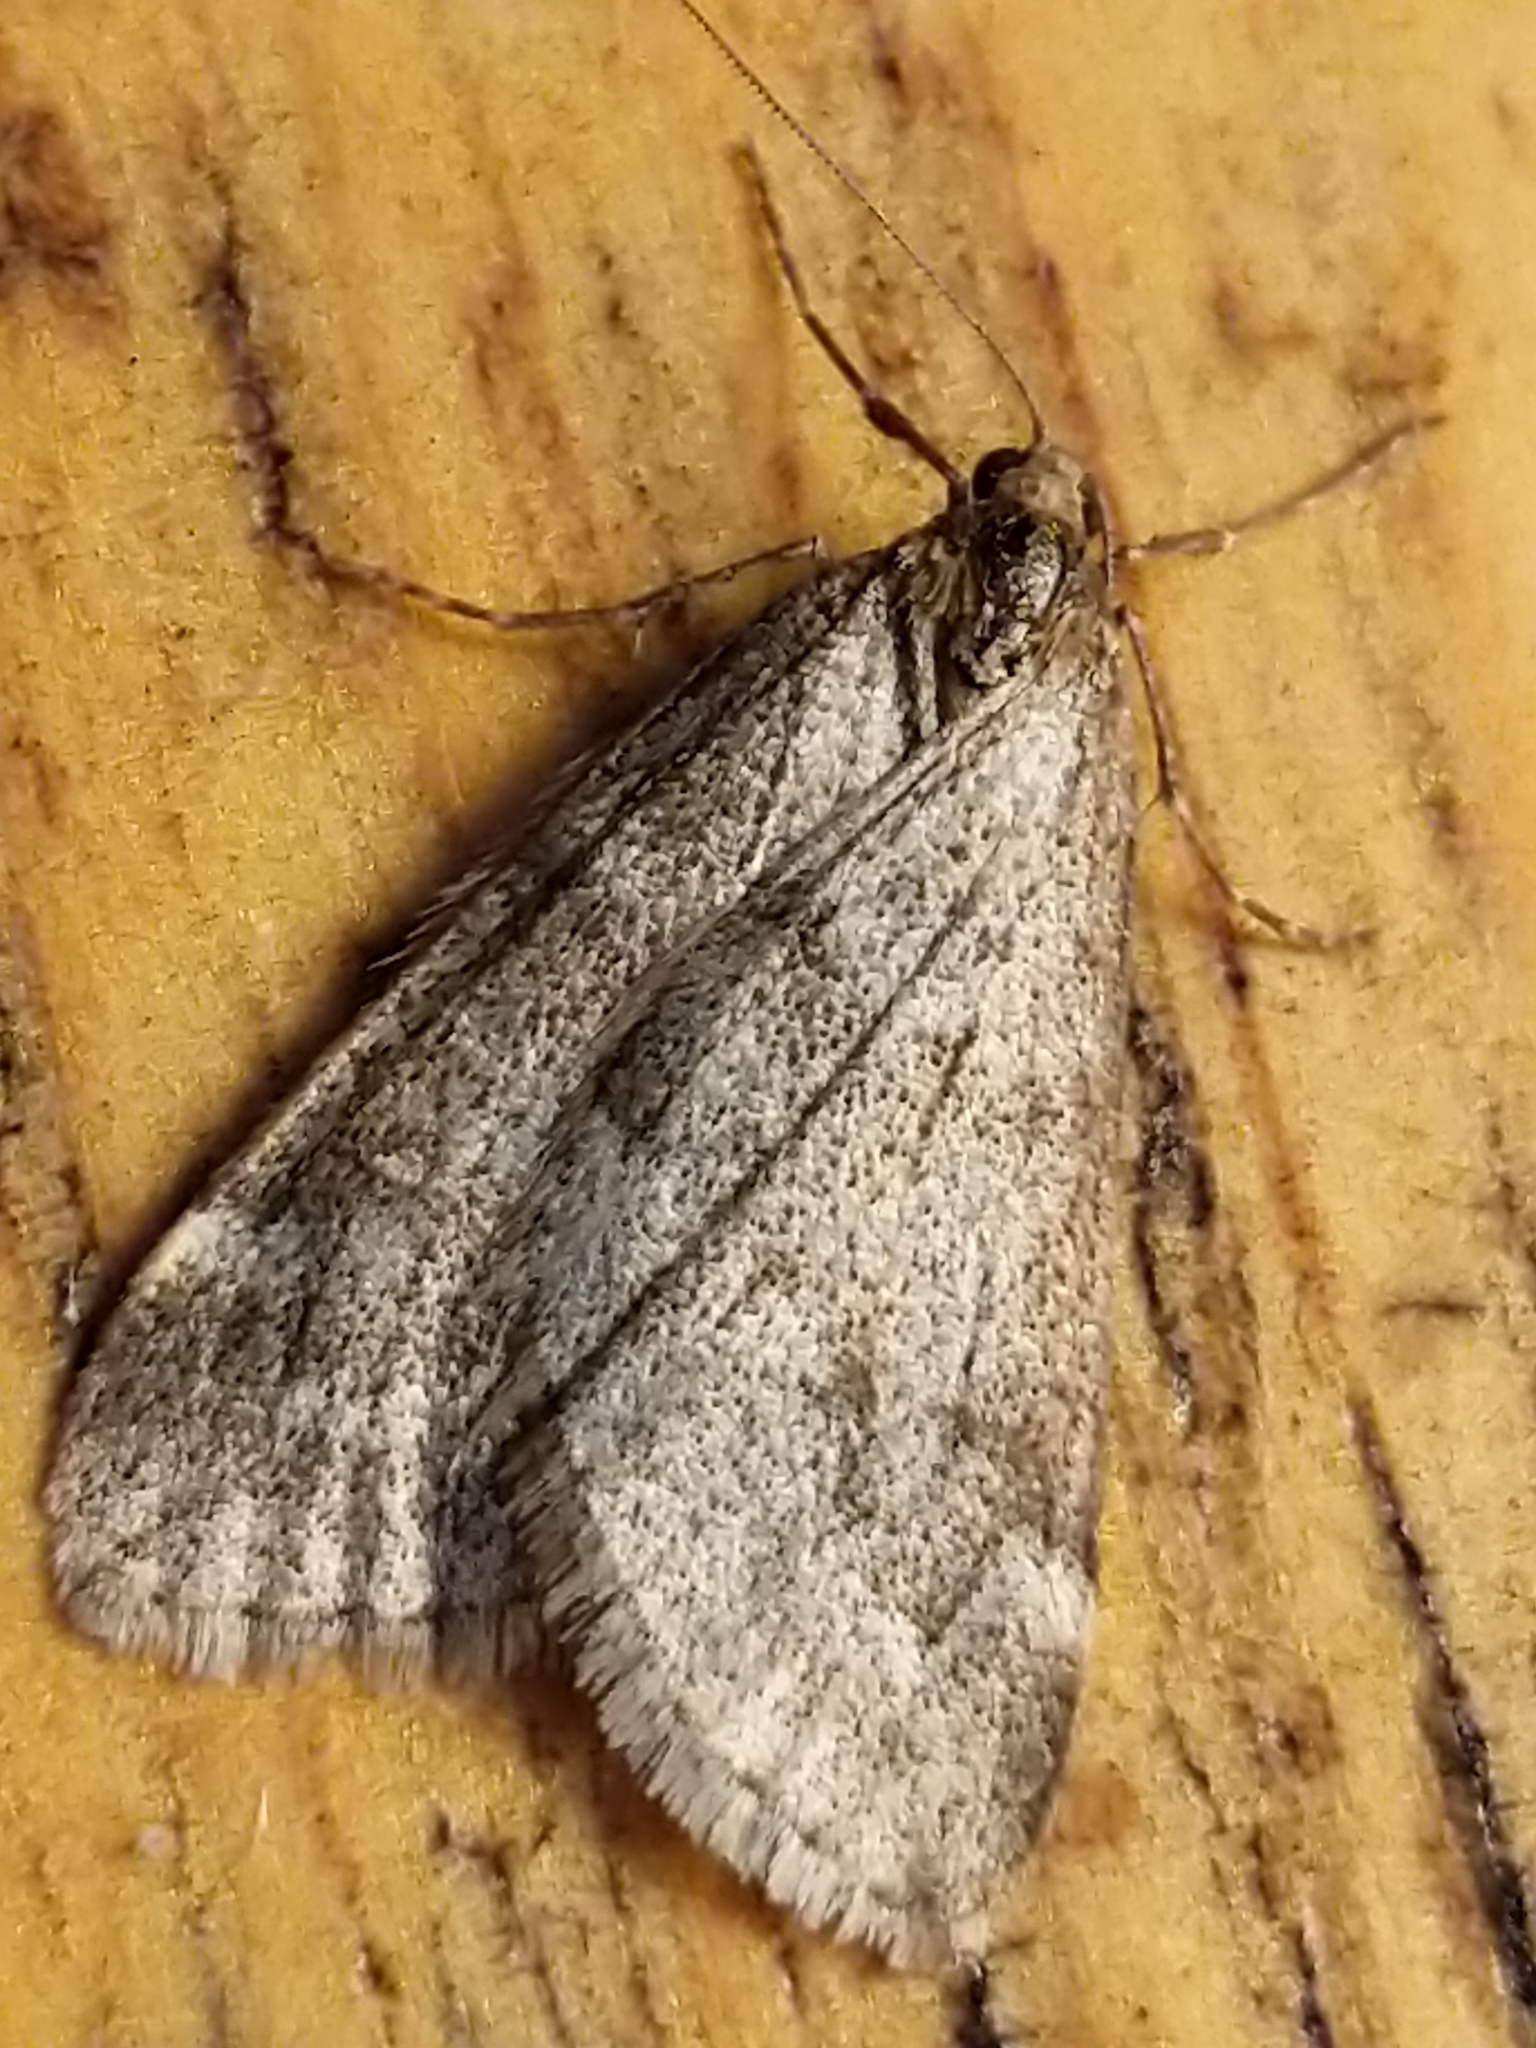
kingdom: Animalia
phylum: Arthropoda
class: Insecta
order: Lepidoptera
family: Geometridae
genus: Alsophila
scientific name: Alsophila pometaria
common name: Fall cankerworm
